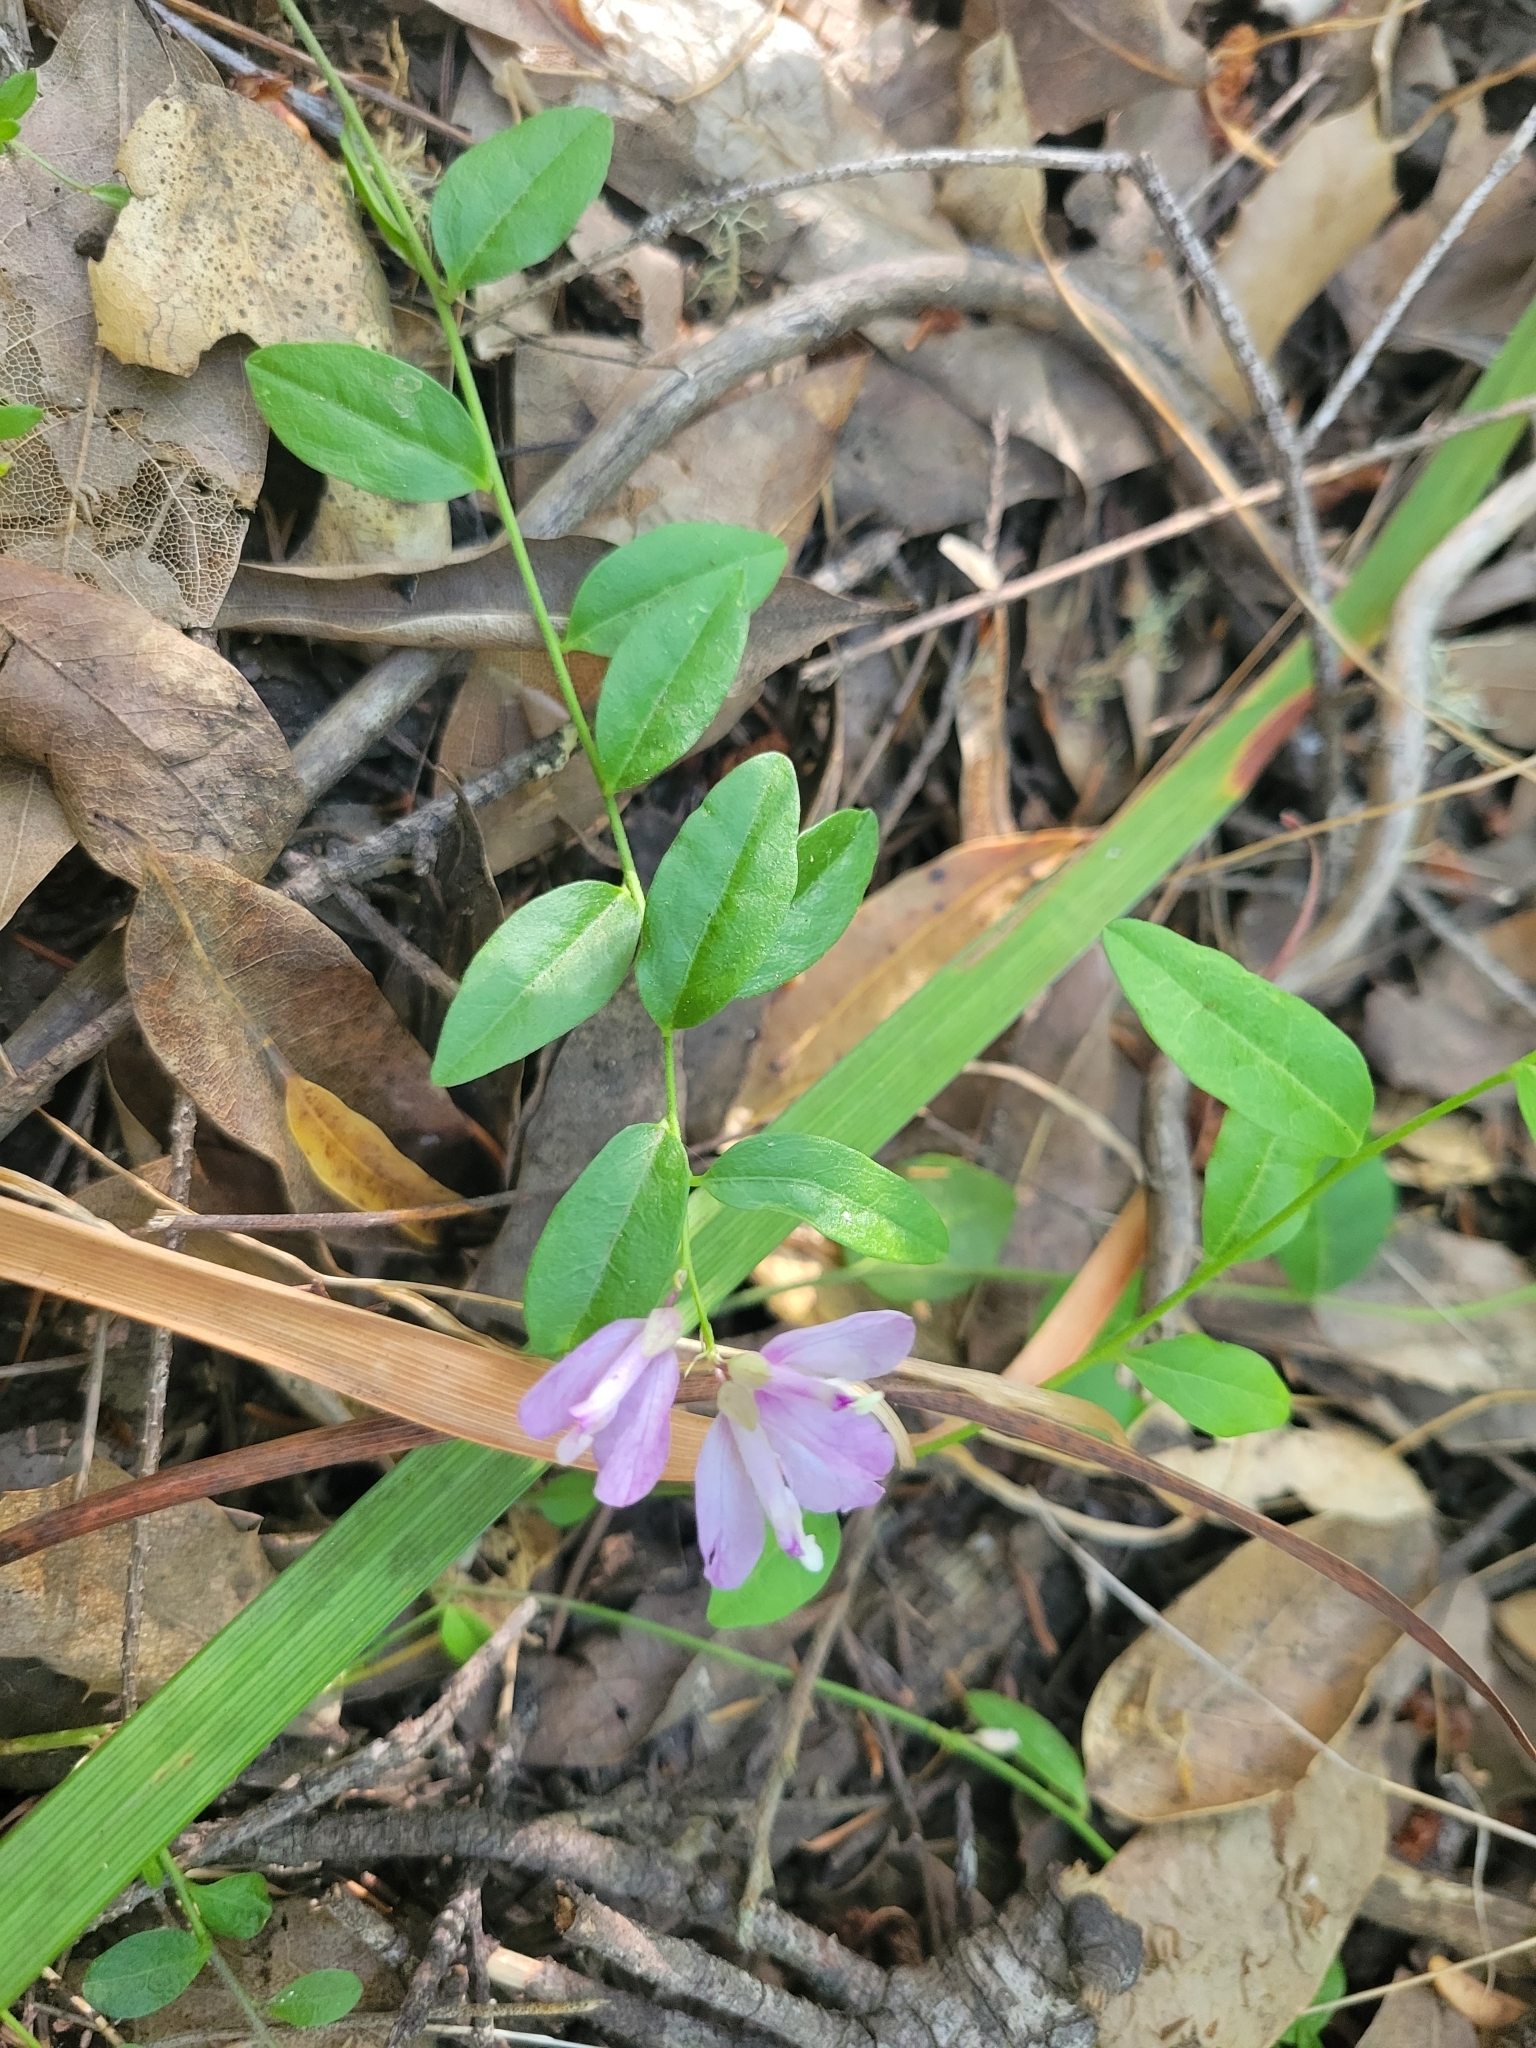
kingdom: Plantae
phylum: Tracheophyta
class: Magnoliopsida
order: Fabales
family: Polygalaceae
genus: Rhinotropis
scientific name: Rhinotropis californica
